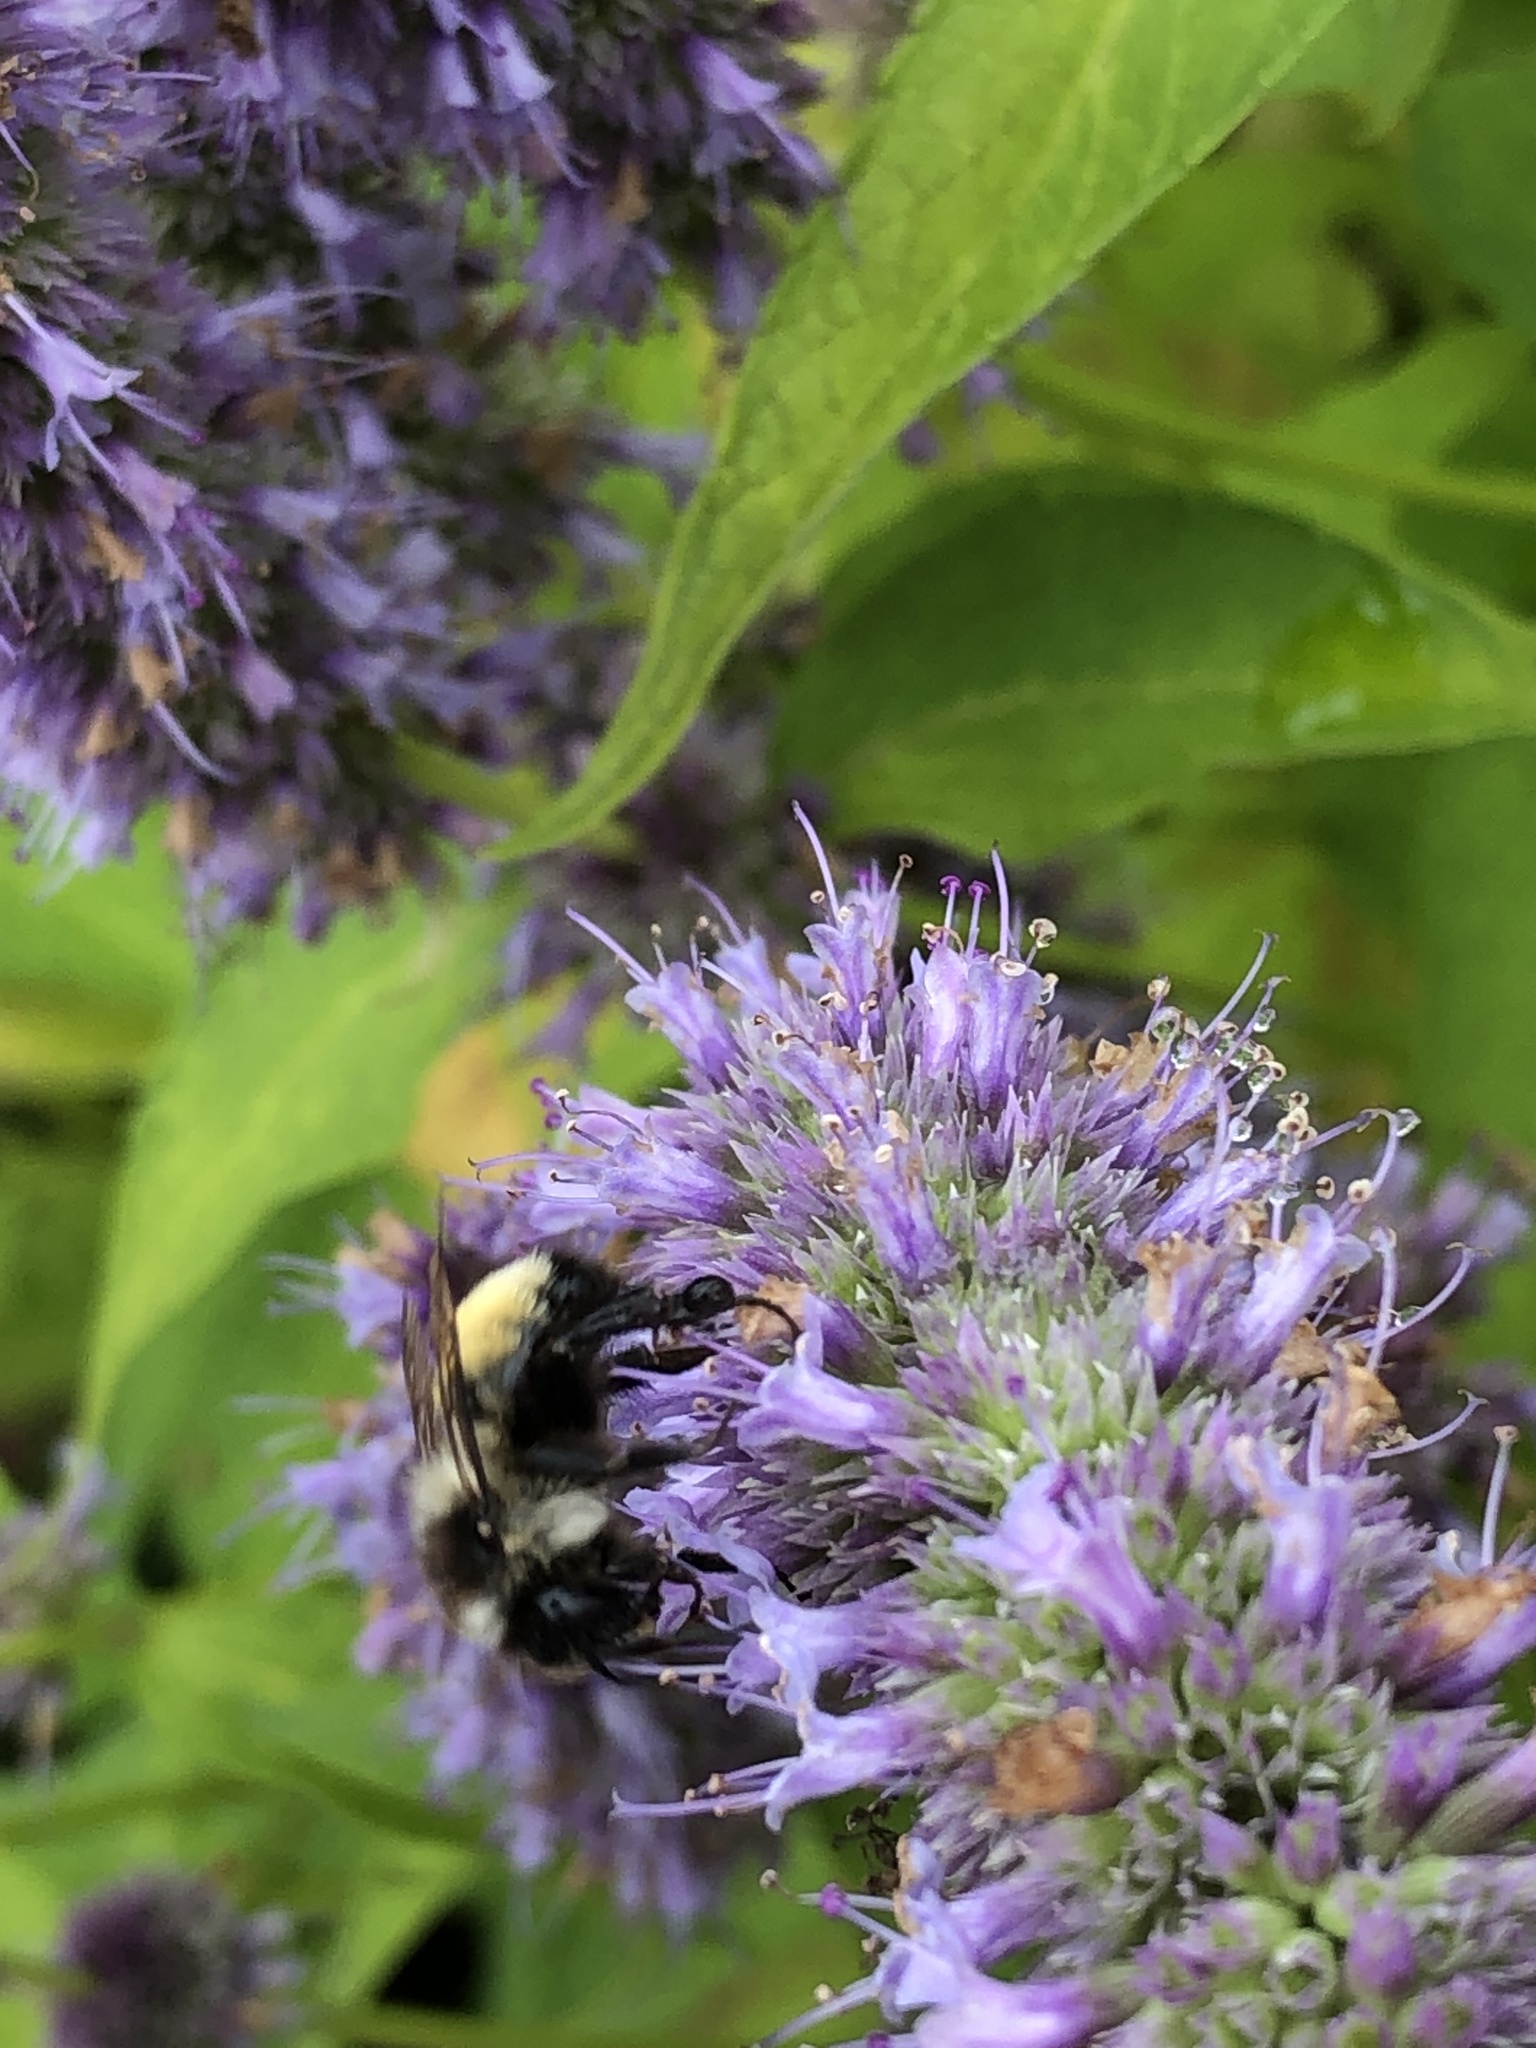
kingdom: Animalia
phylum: Arthropoda
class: Insecta
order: Hymenoptera
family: Apidae
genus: Bombus
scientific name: Bombus ternarius
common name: Tri-colored bumble bee
